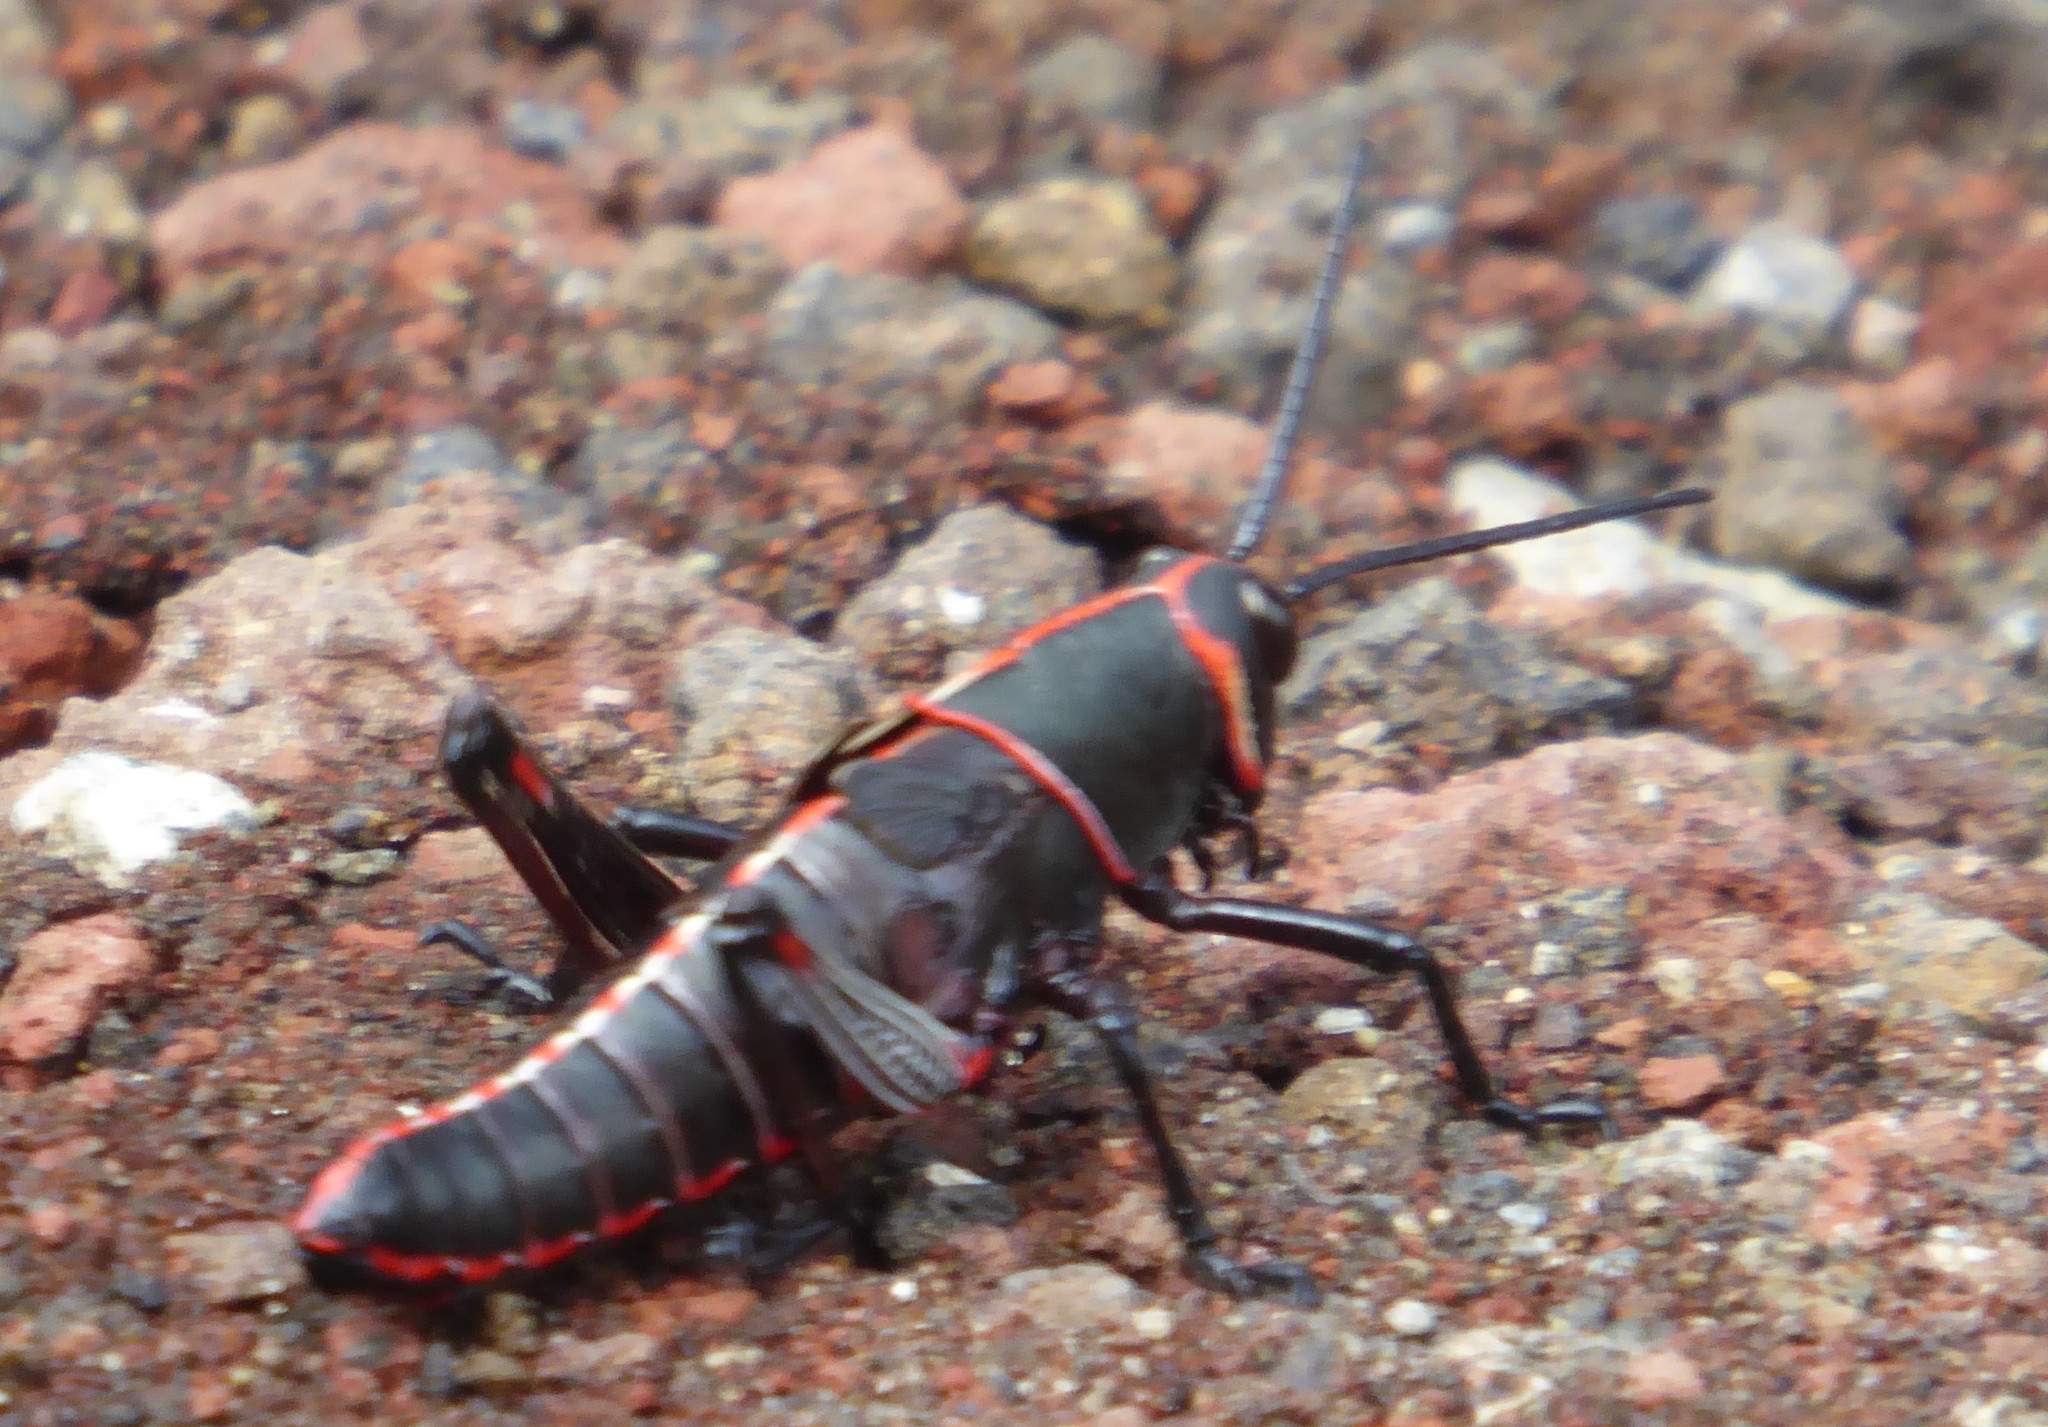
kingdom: Animalia
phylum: Arthropoda
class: Insecta
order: Orthoptera
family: Romaleidae
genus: Romalea
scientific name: Romalea
